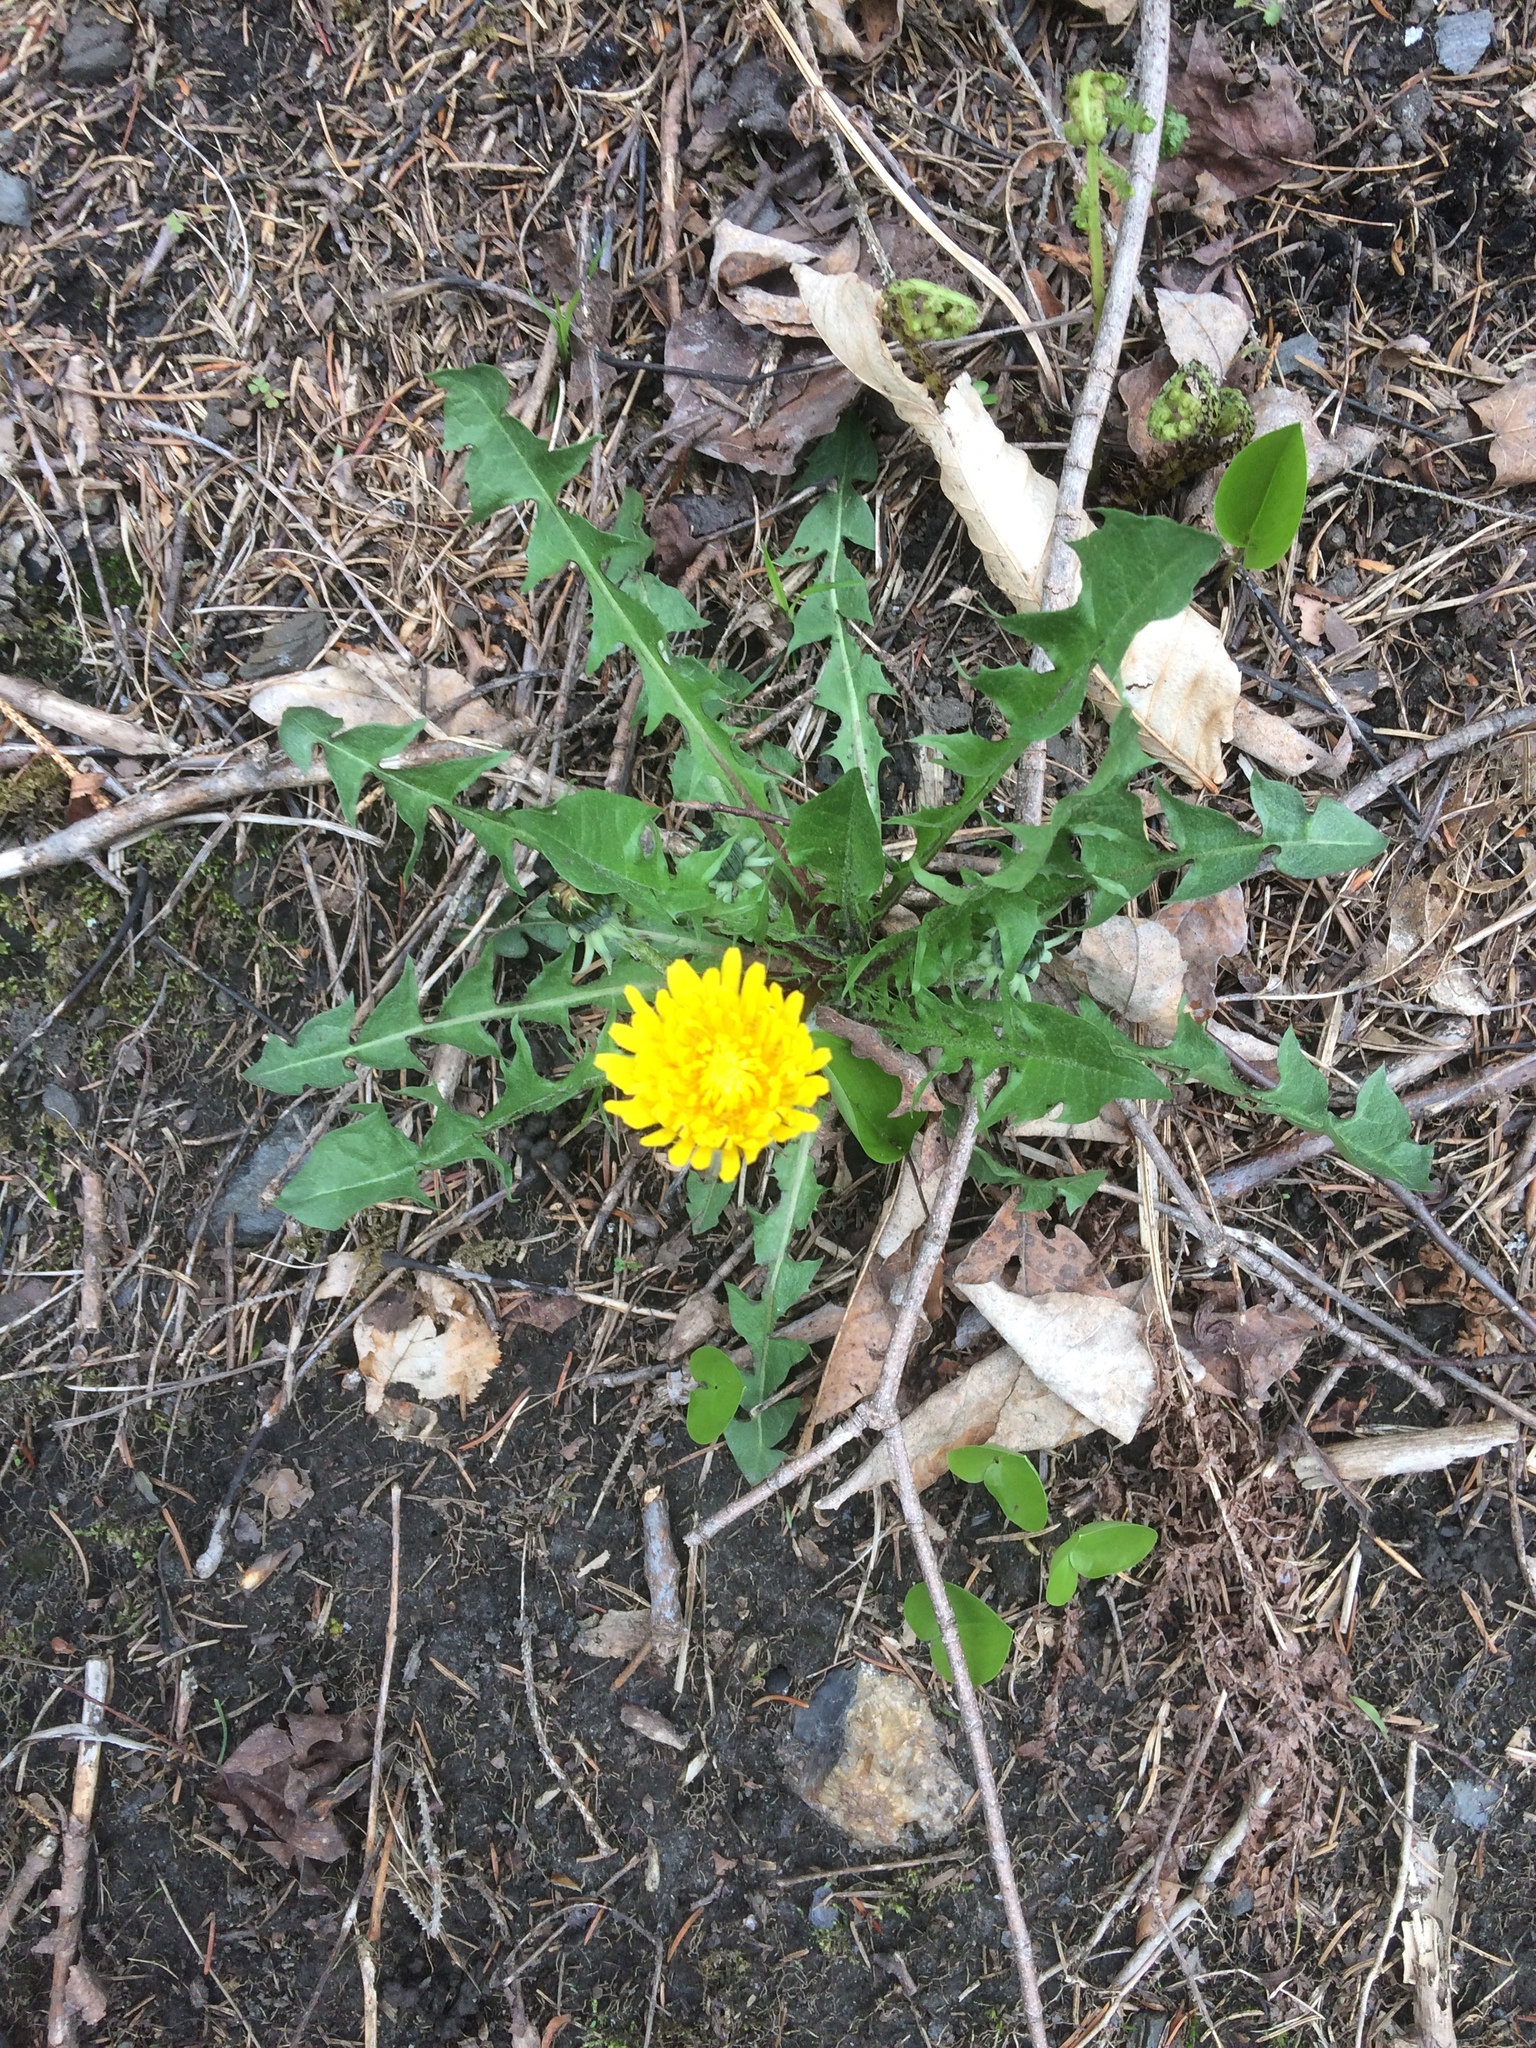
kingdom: Plantae
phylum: Tracheophyta
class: Magnoliopsida
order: Asterales
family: Asteraceae
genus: Taraxacum
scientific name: Taraxacum officinale
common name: Common dandelion
